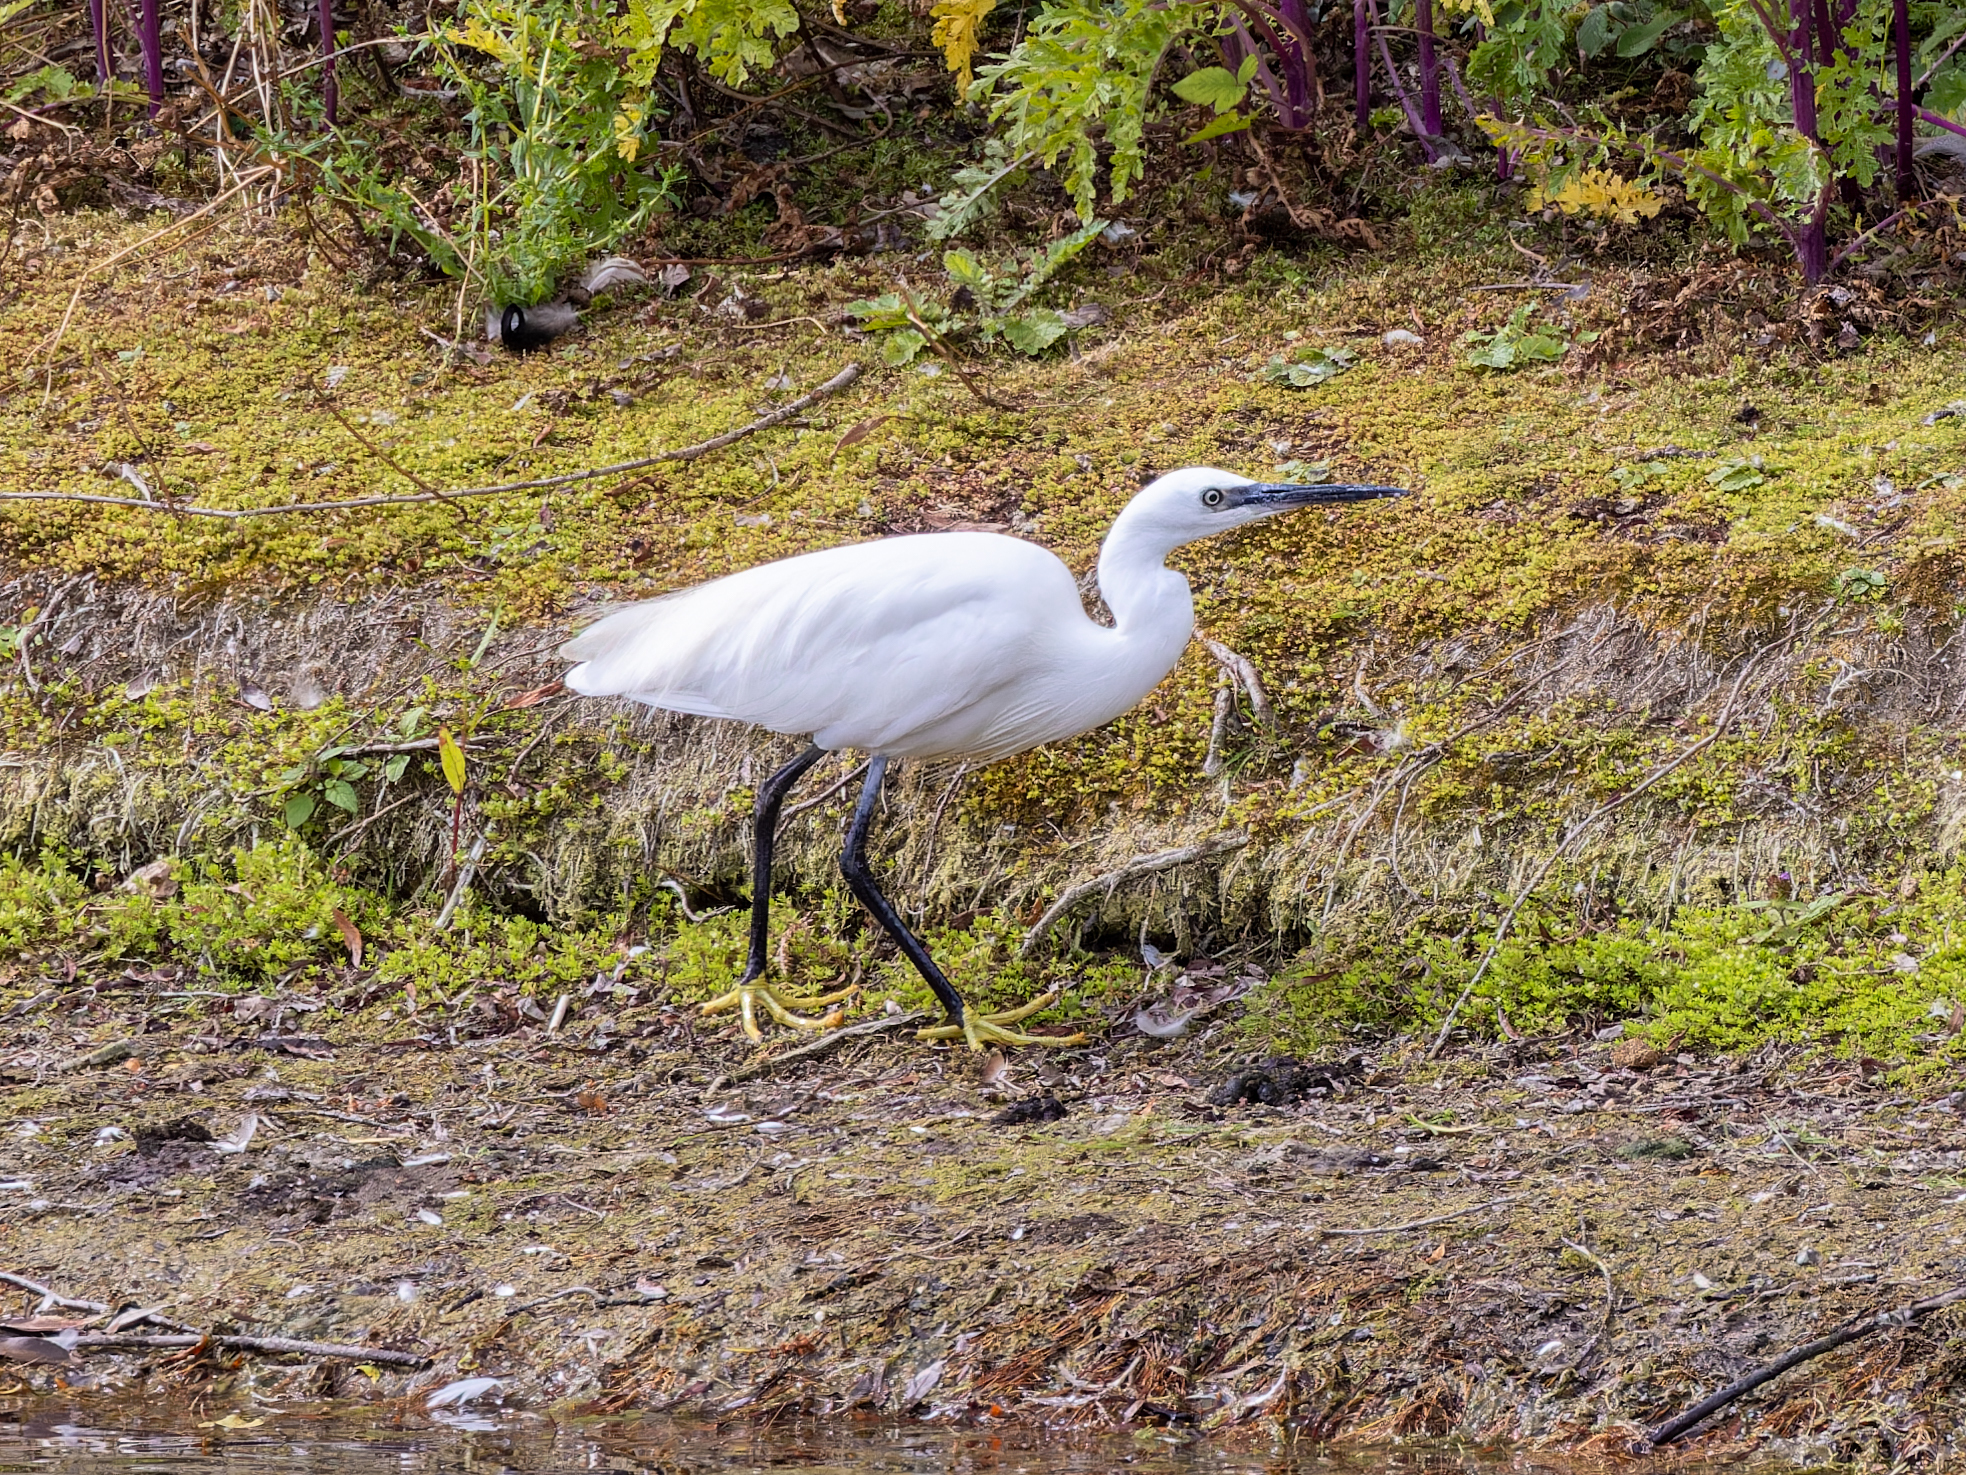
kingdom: Animalia
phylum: Chordata
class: Aves
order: Pelecaniformes
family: Ardeidae
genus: Egretta
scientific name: Egretta garzetta
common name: Little egret
